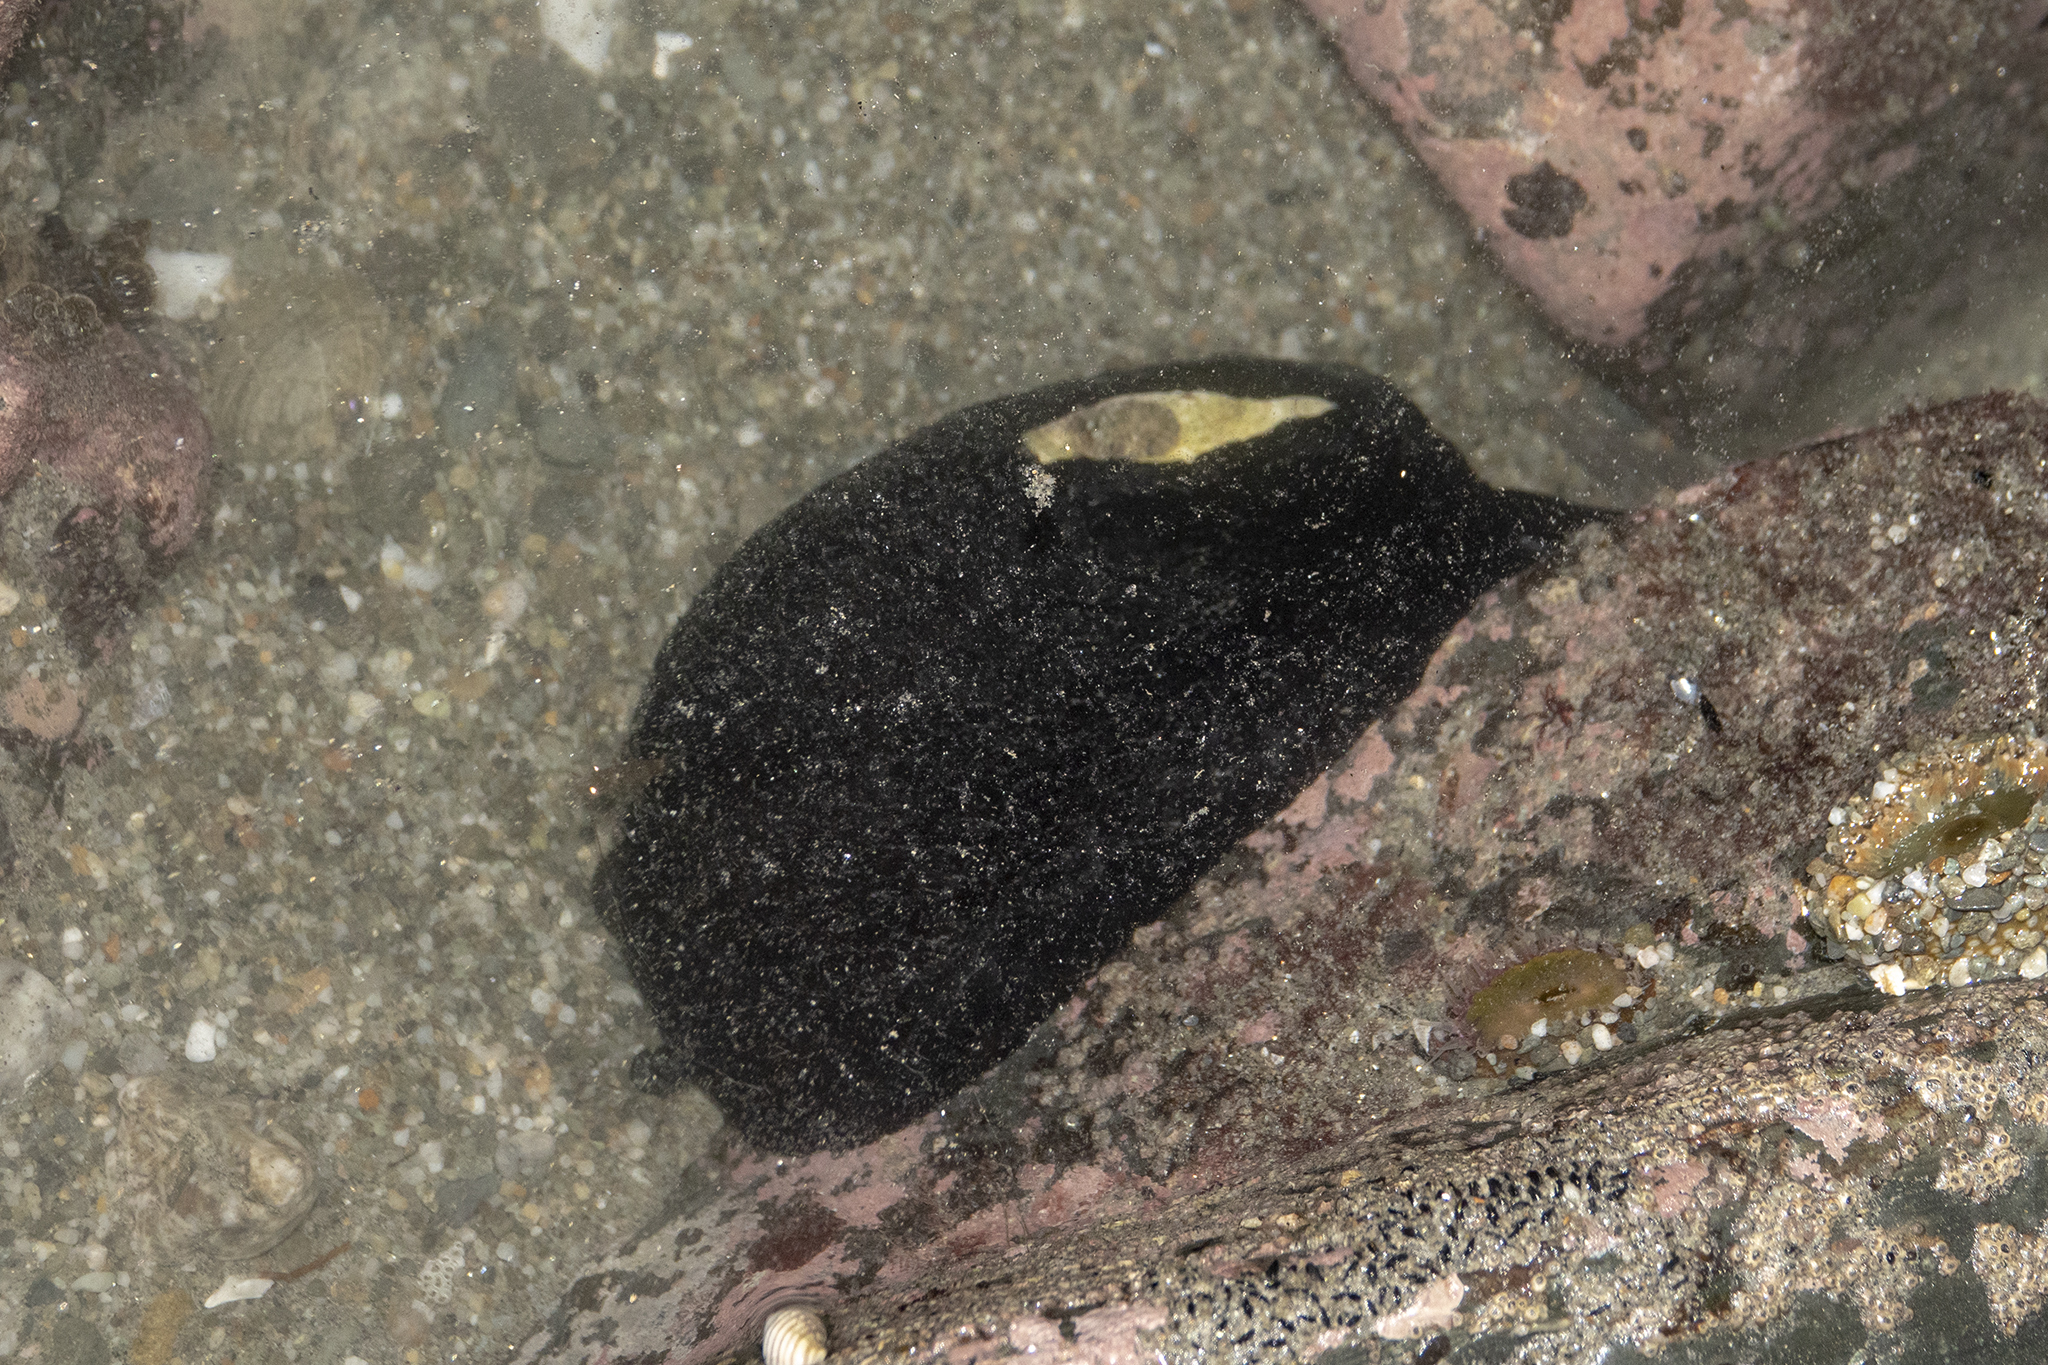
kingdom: Animalia
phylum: Mollusca
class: Gastropoda
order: Lepetellida
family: Fissurellidae
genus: Scutus
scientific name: Scutus breviculus
